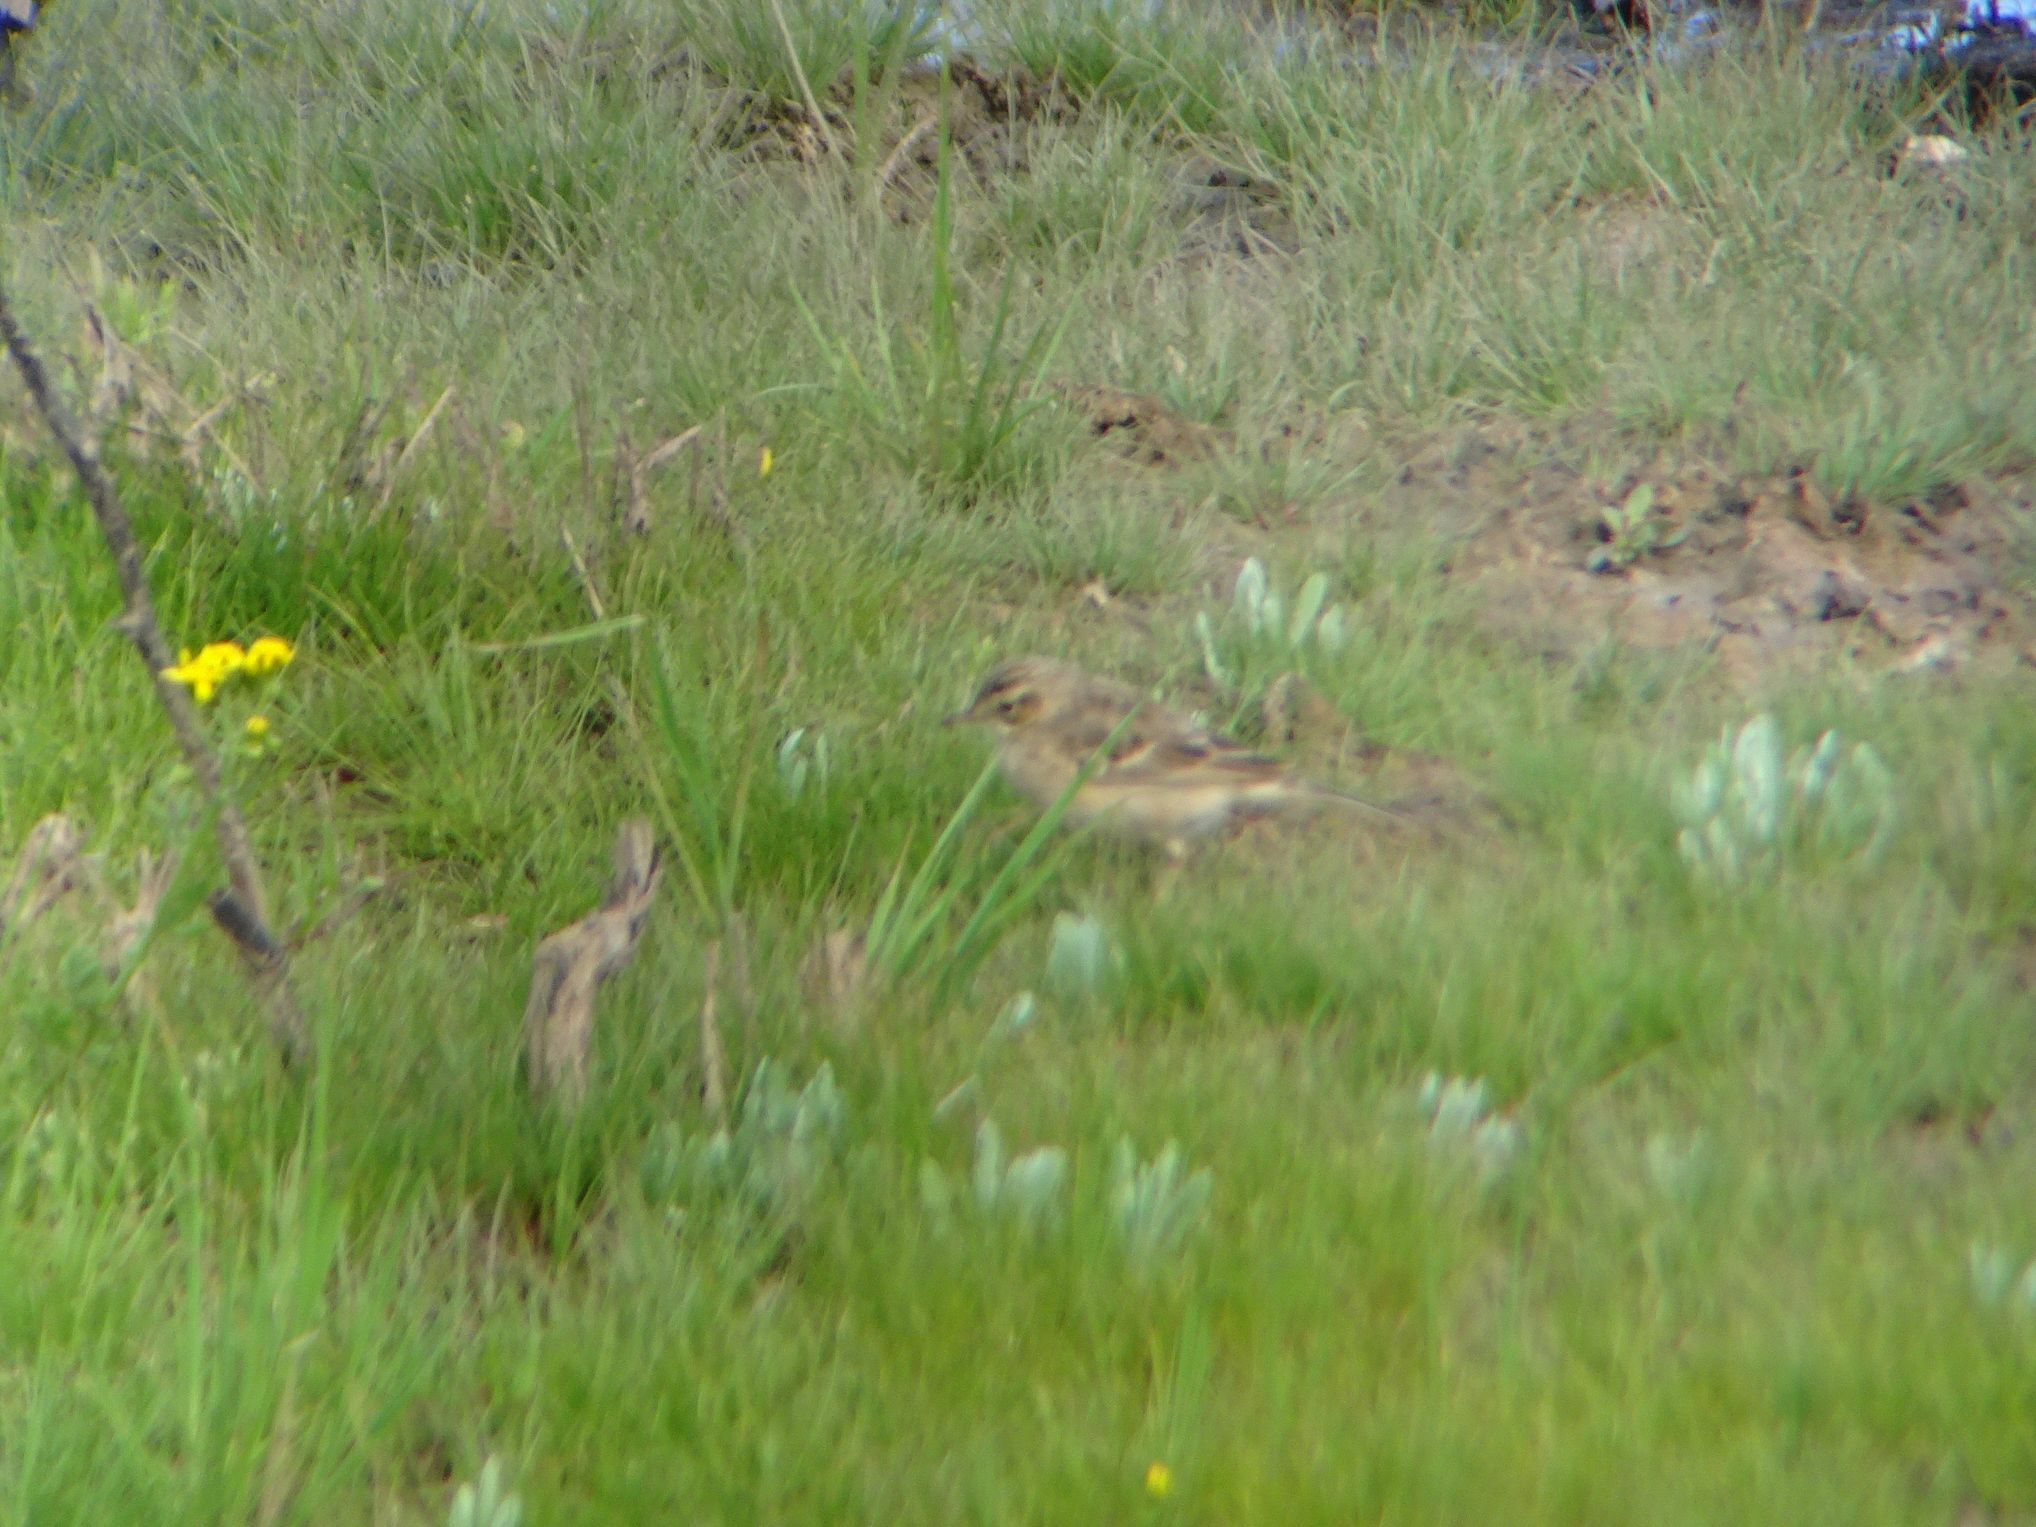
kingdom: Animalia
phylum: Chordata
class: Aves
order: Passeriformes
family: Motacillidae
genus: Anthus
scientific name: Anthus cinnamomeus
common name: African pipit
